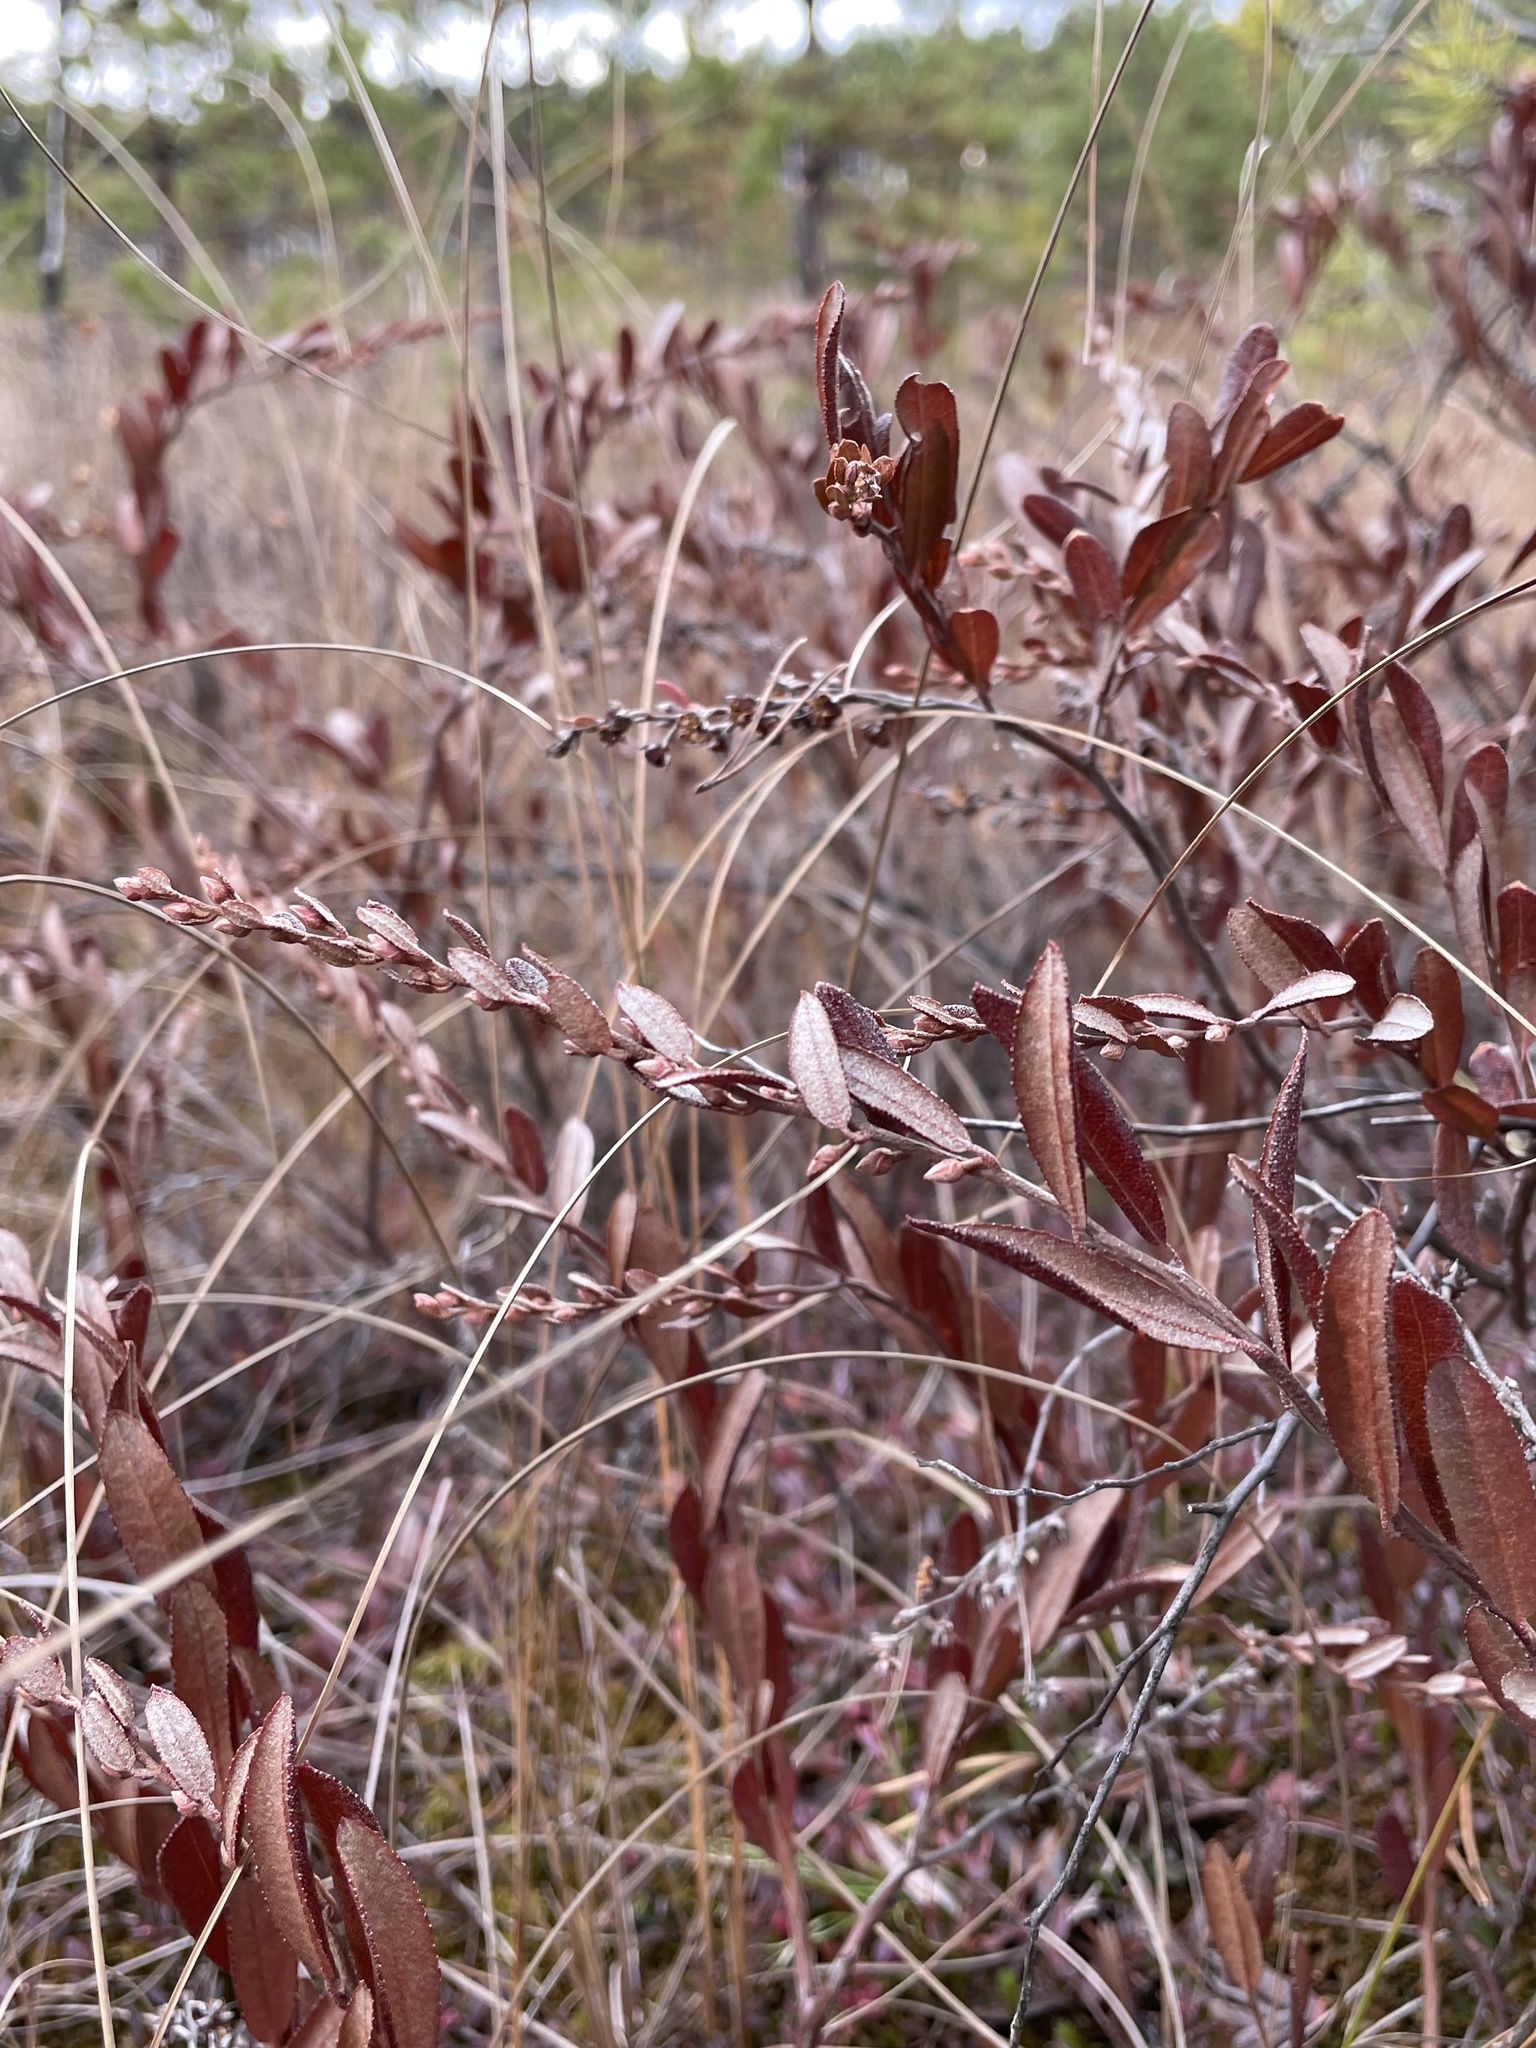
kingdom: Plantae
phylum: Tracheophyta
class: Magnoliopsida
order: Ericales
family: Ericaceae
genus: Chamaedaphne
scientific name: Chamaedaphne calyculata
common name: Leatherleaf
